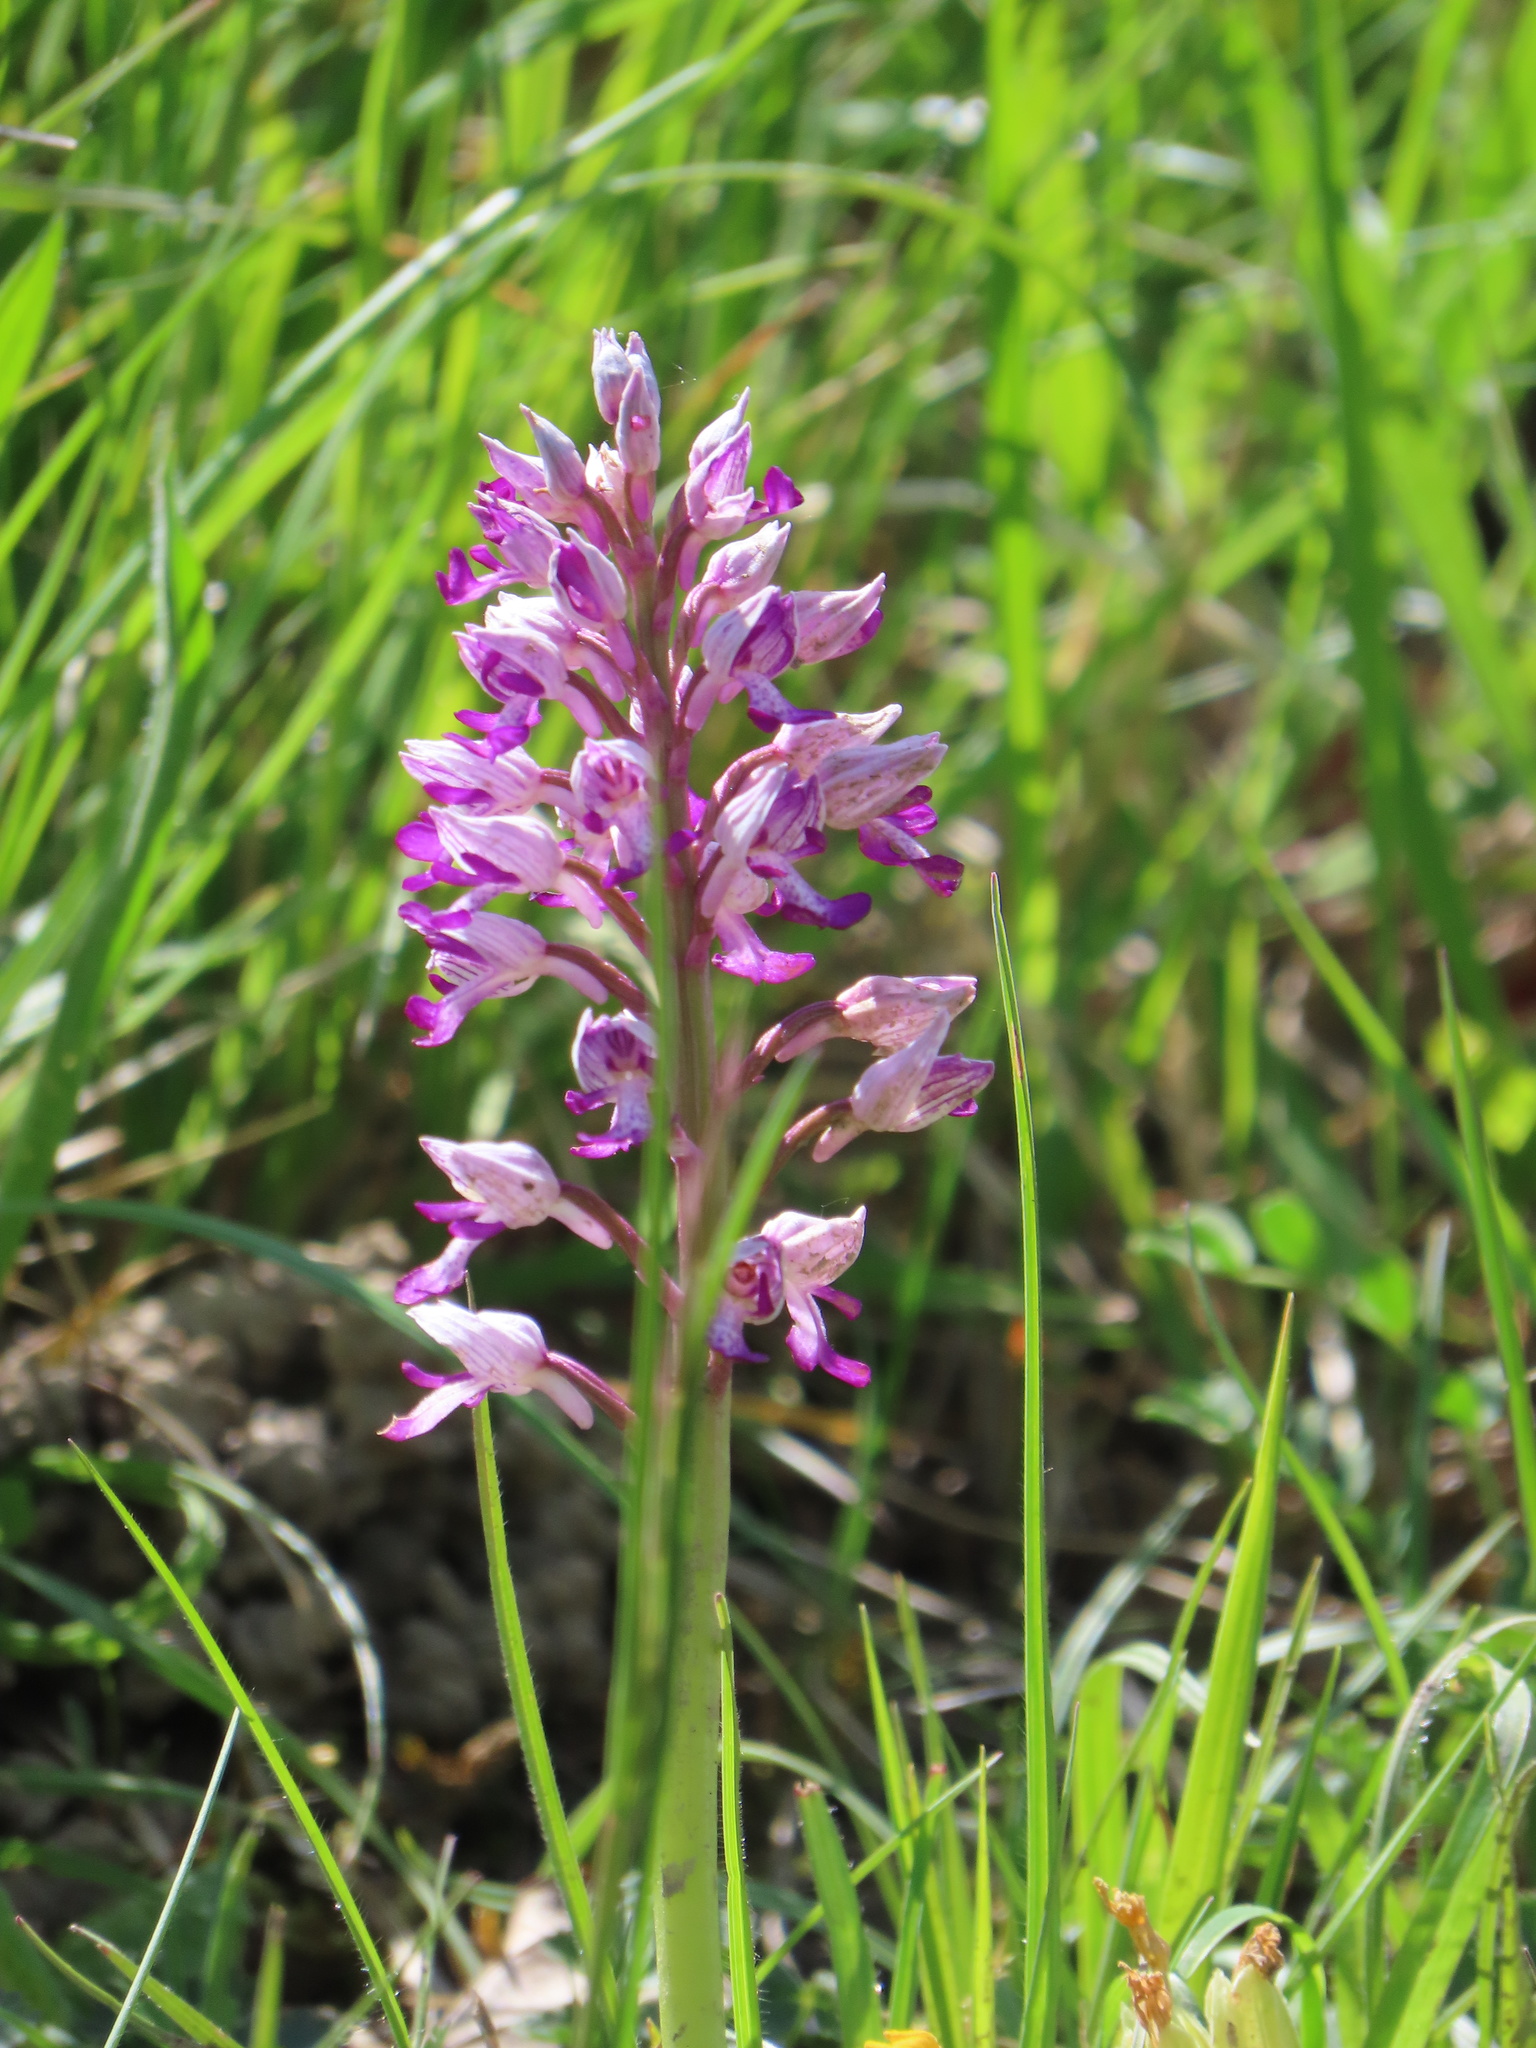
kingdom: Plantae
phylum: Tracheophyta
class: Liliopsida
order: Asparagales
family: Orchidaceae
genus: Orchis
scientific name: Orchis beyrichii
